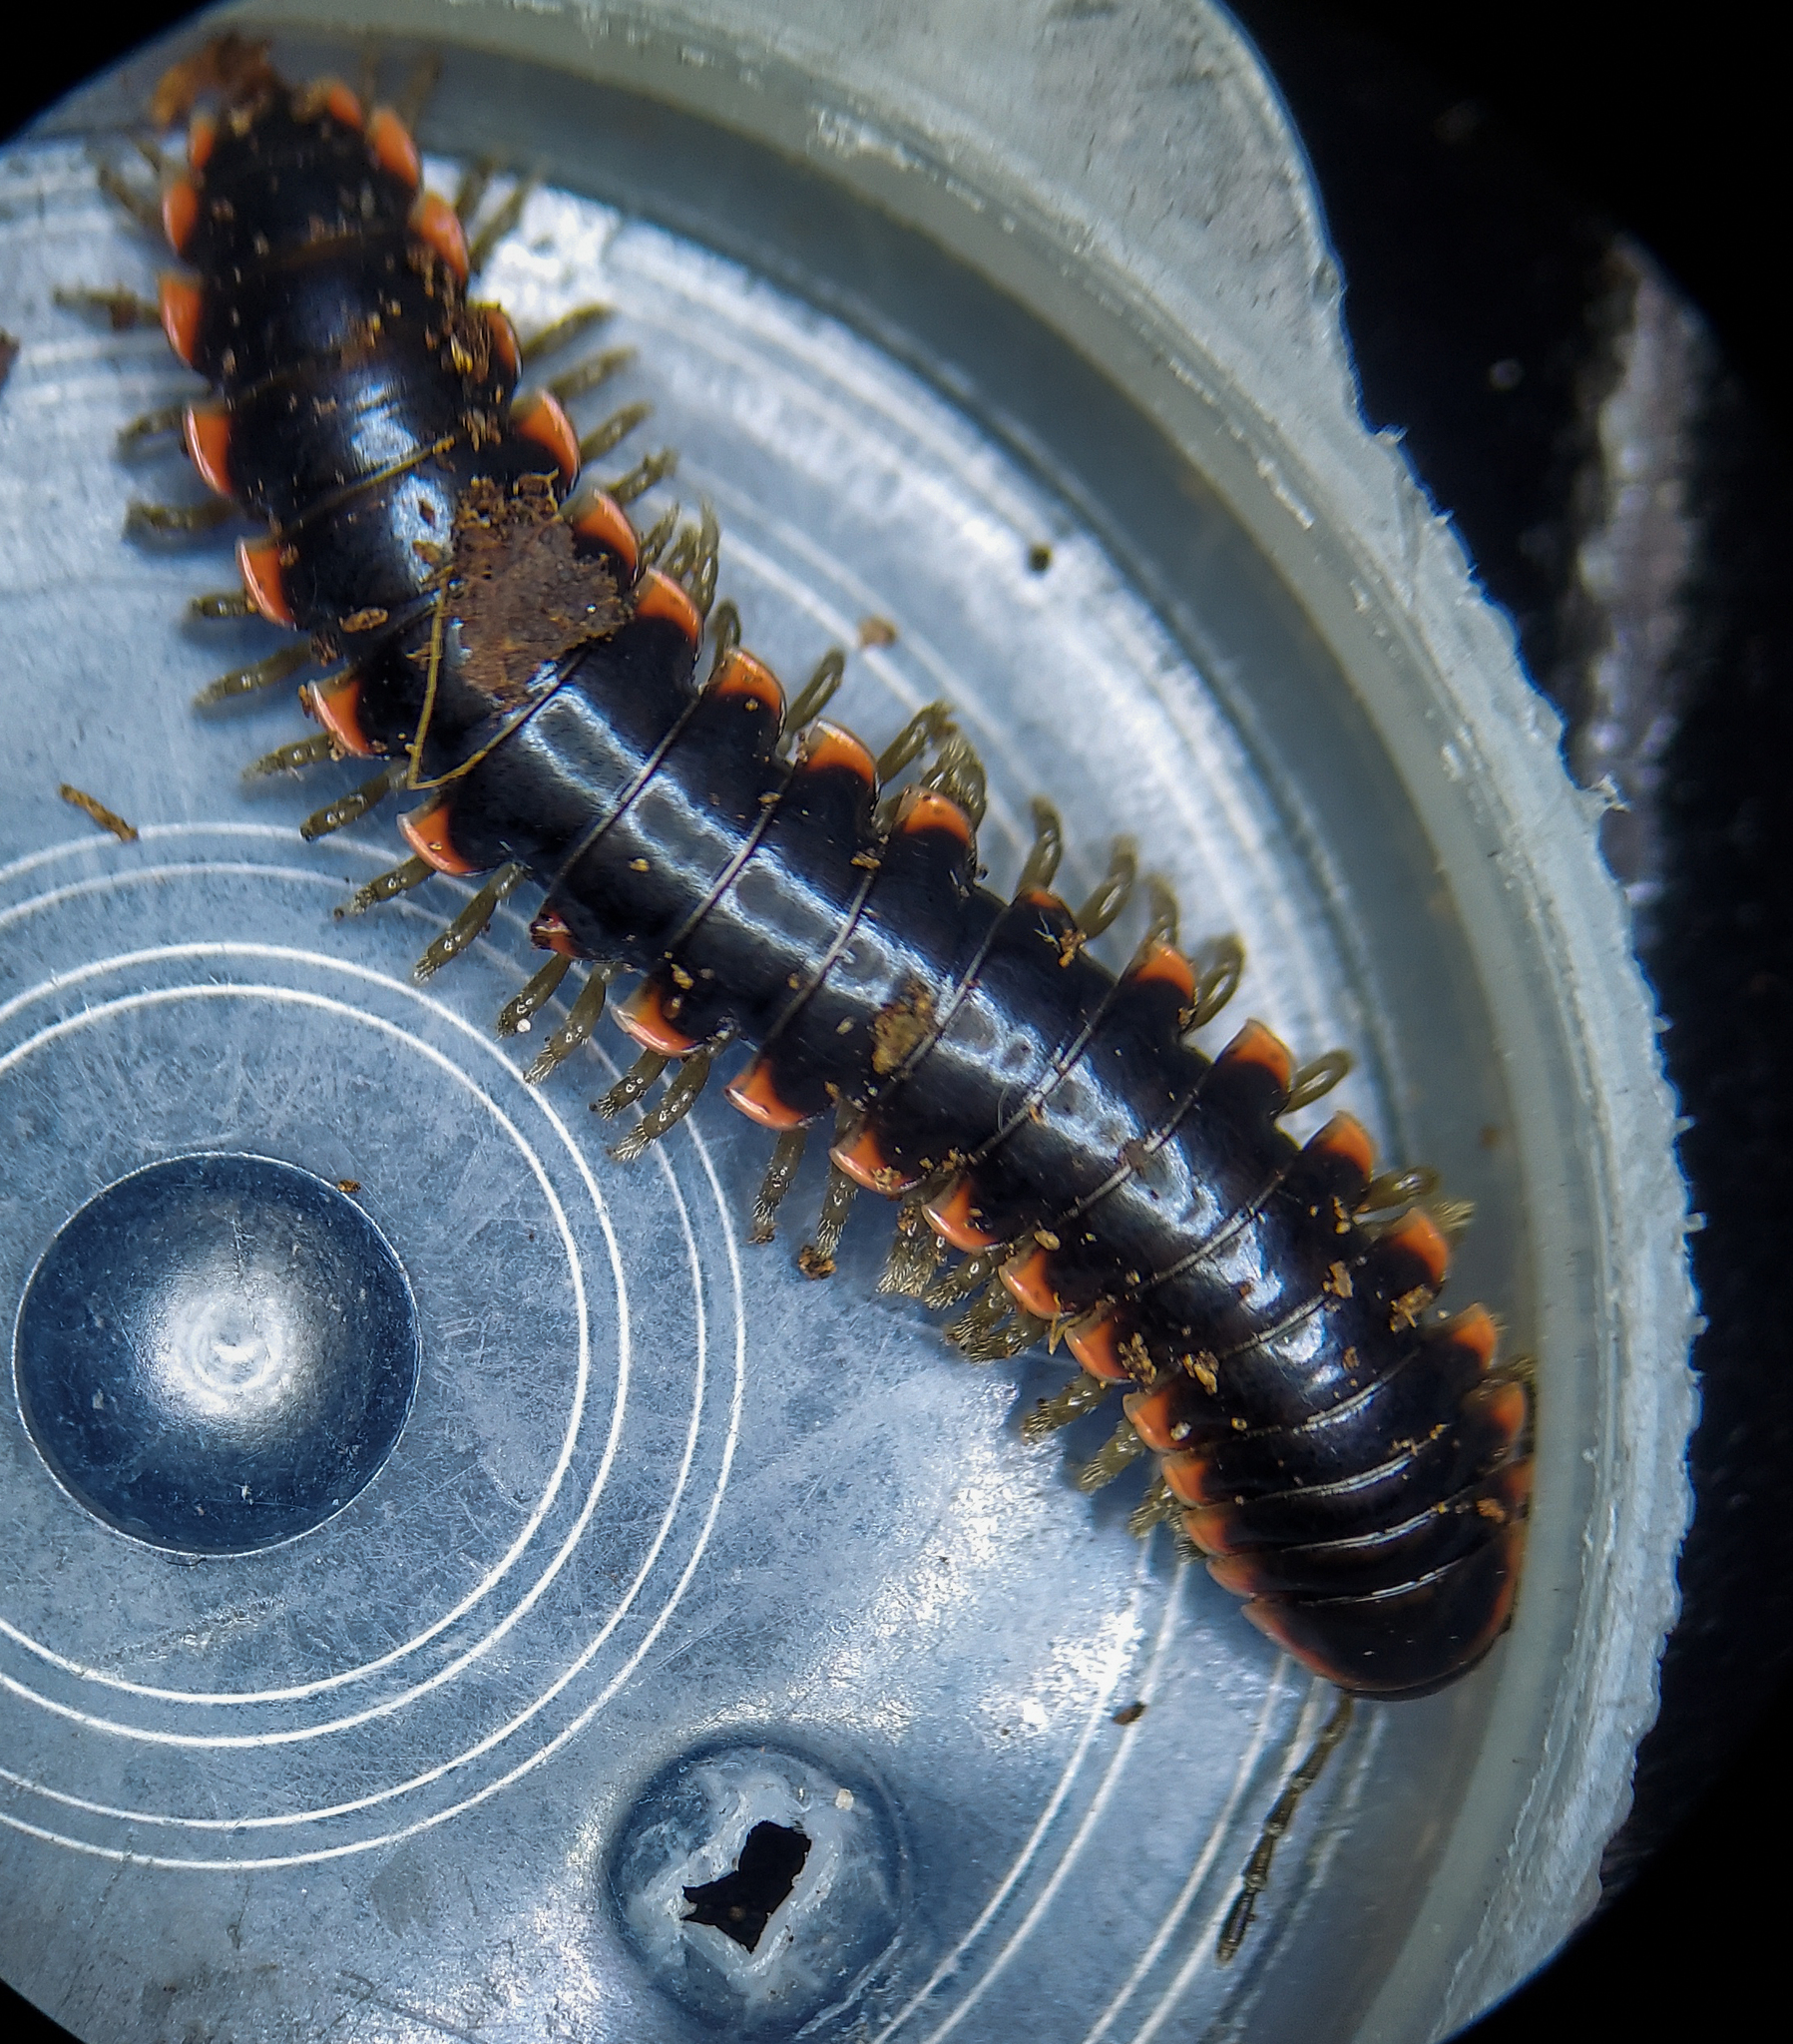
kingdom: Animalia
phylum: Arthropoda
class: Diplopoda
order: Polydesmida
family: Xystodesmidae
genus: Nannaria
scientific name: Nannaria blackmountainensis
